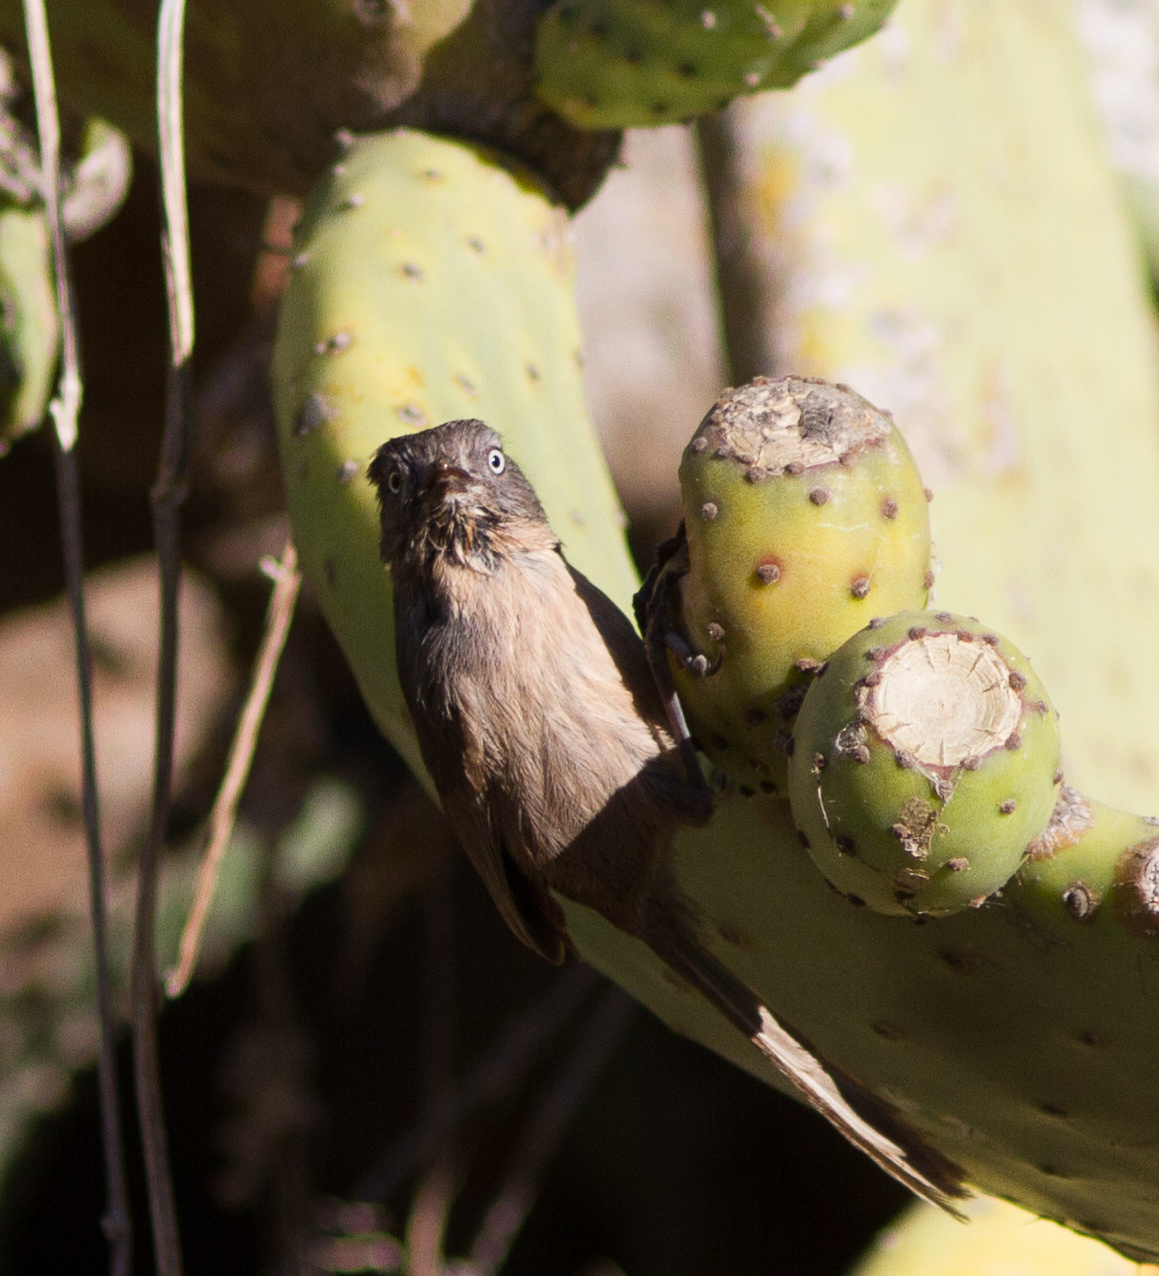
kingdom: Animalia
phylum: Chordata
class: Aves
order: Passeriformes
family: Sylviidae
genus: Chamaea
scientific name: Chamaea fasciata
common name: Wrentit
